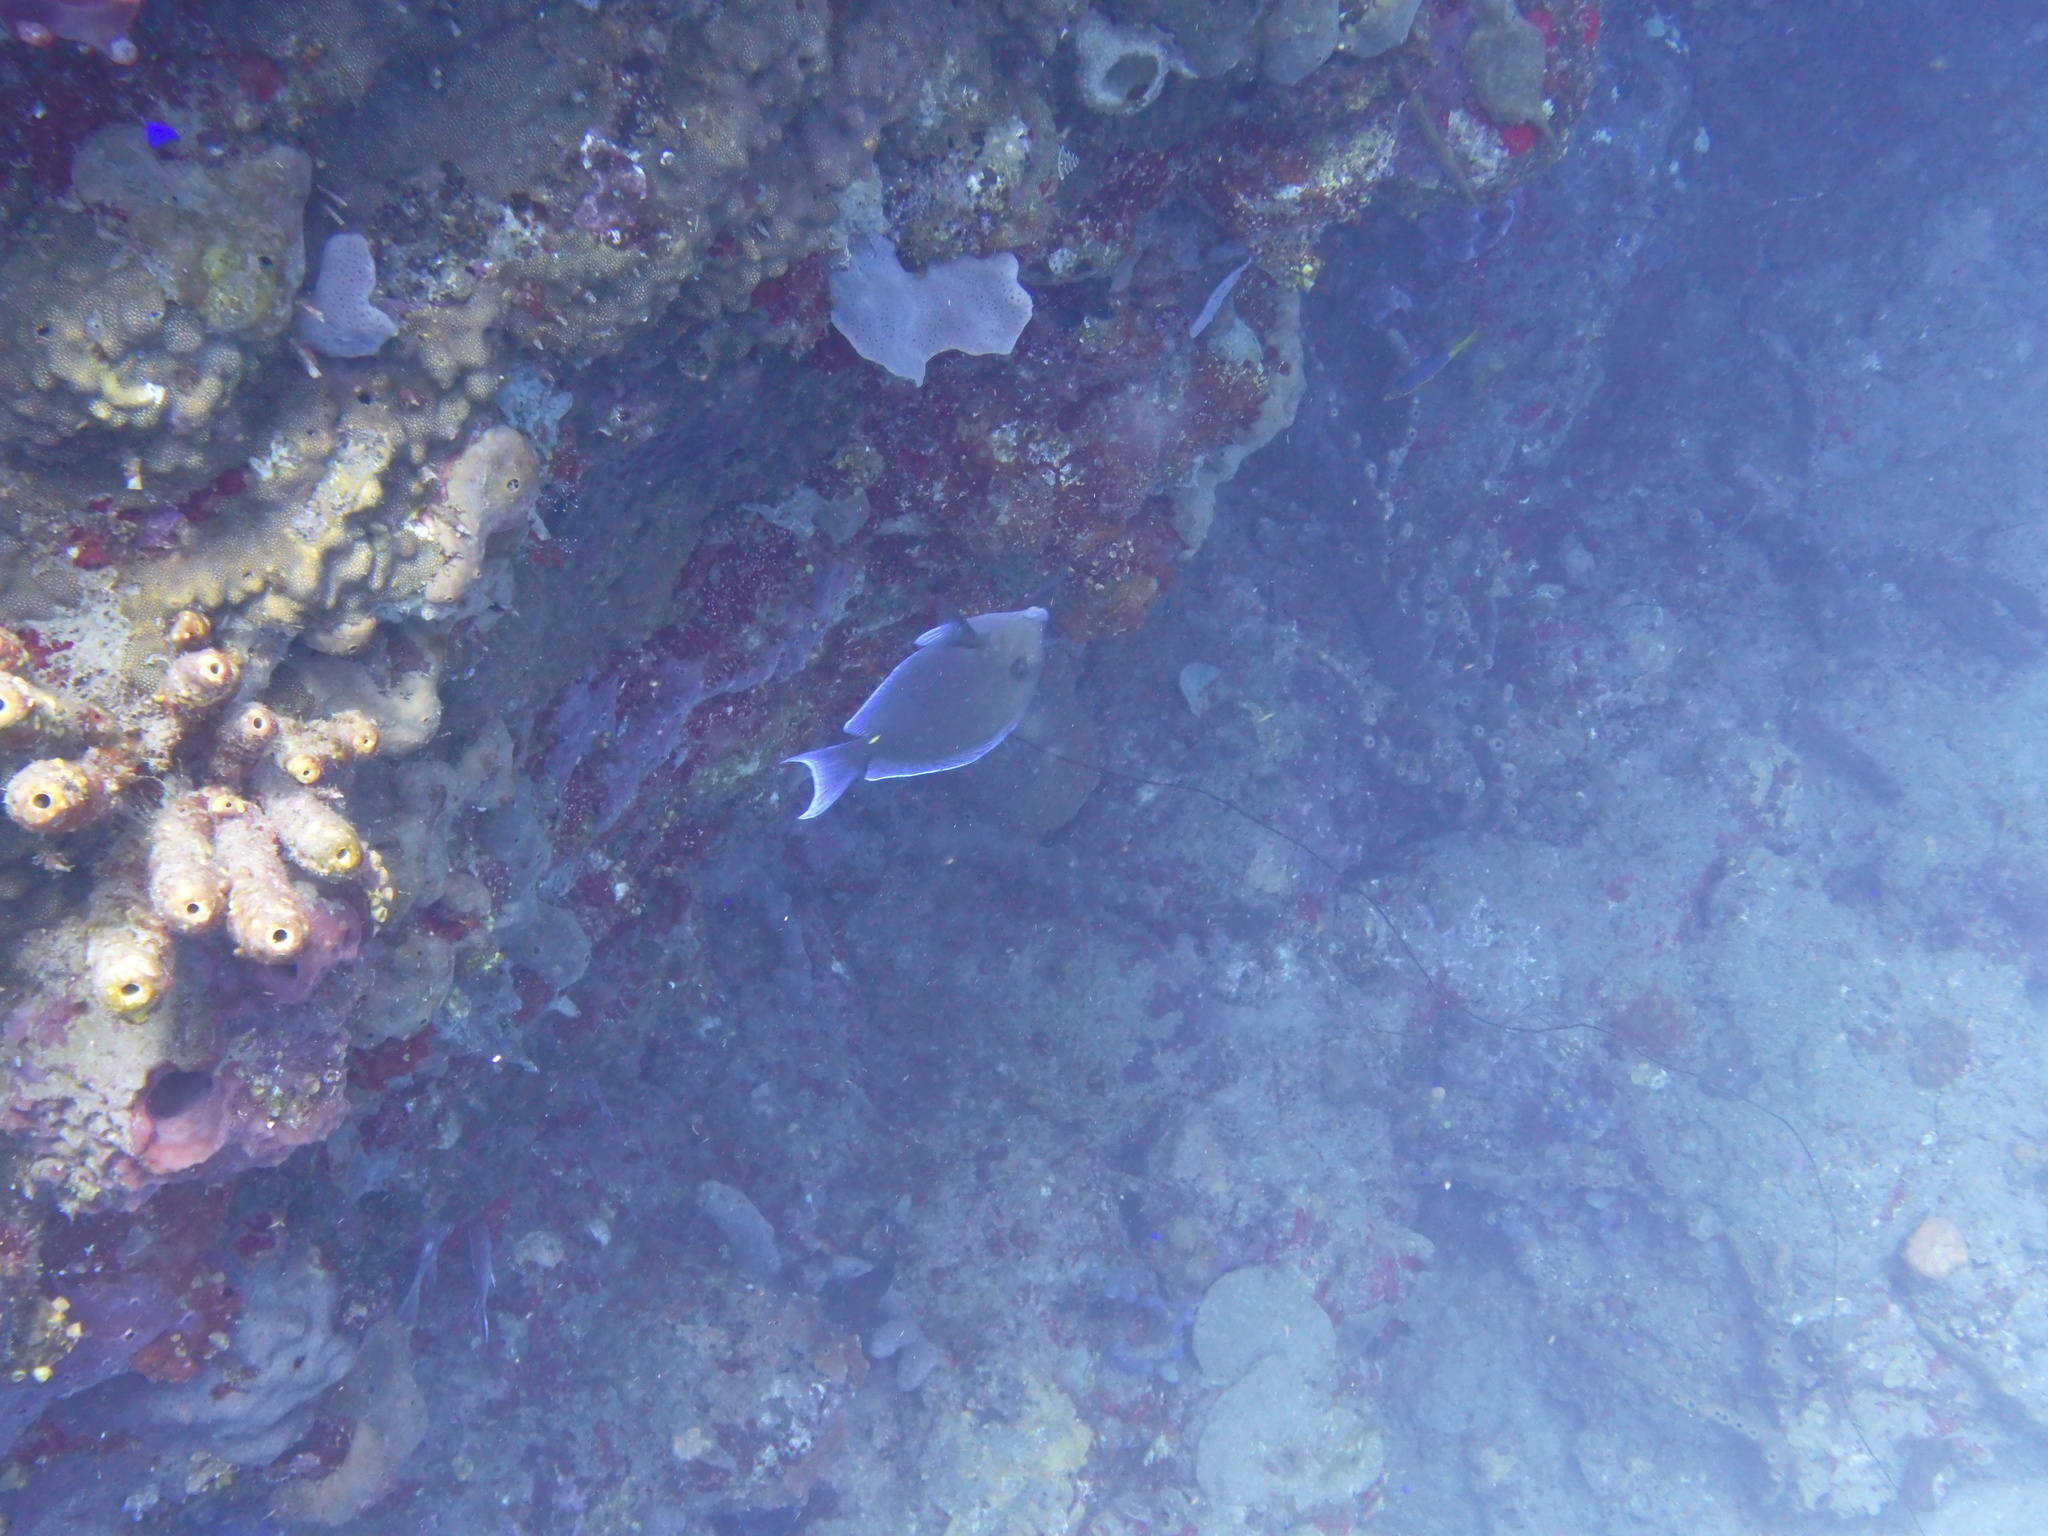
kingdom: Animalia
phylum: Chordata
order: Perciformes
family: Acanthuridae
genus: Acanthurus
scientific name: Acanthurus coeruleus
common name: Blue tang
